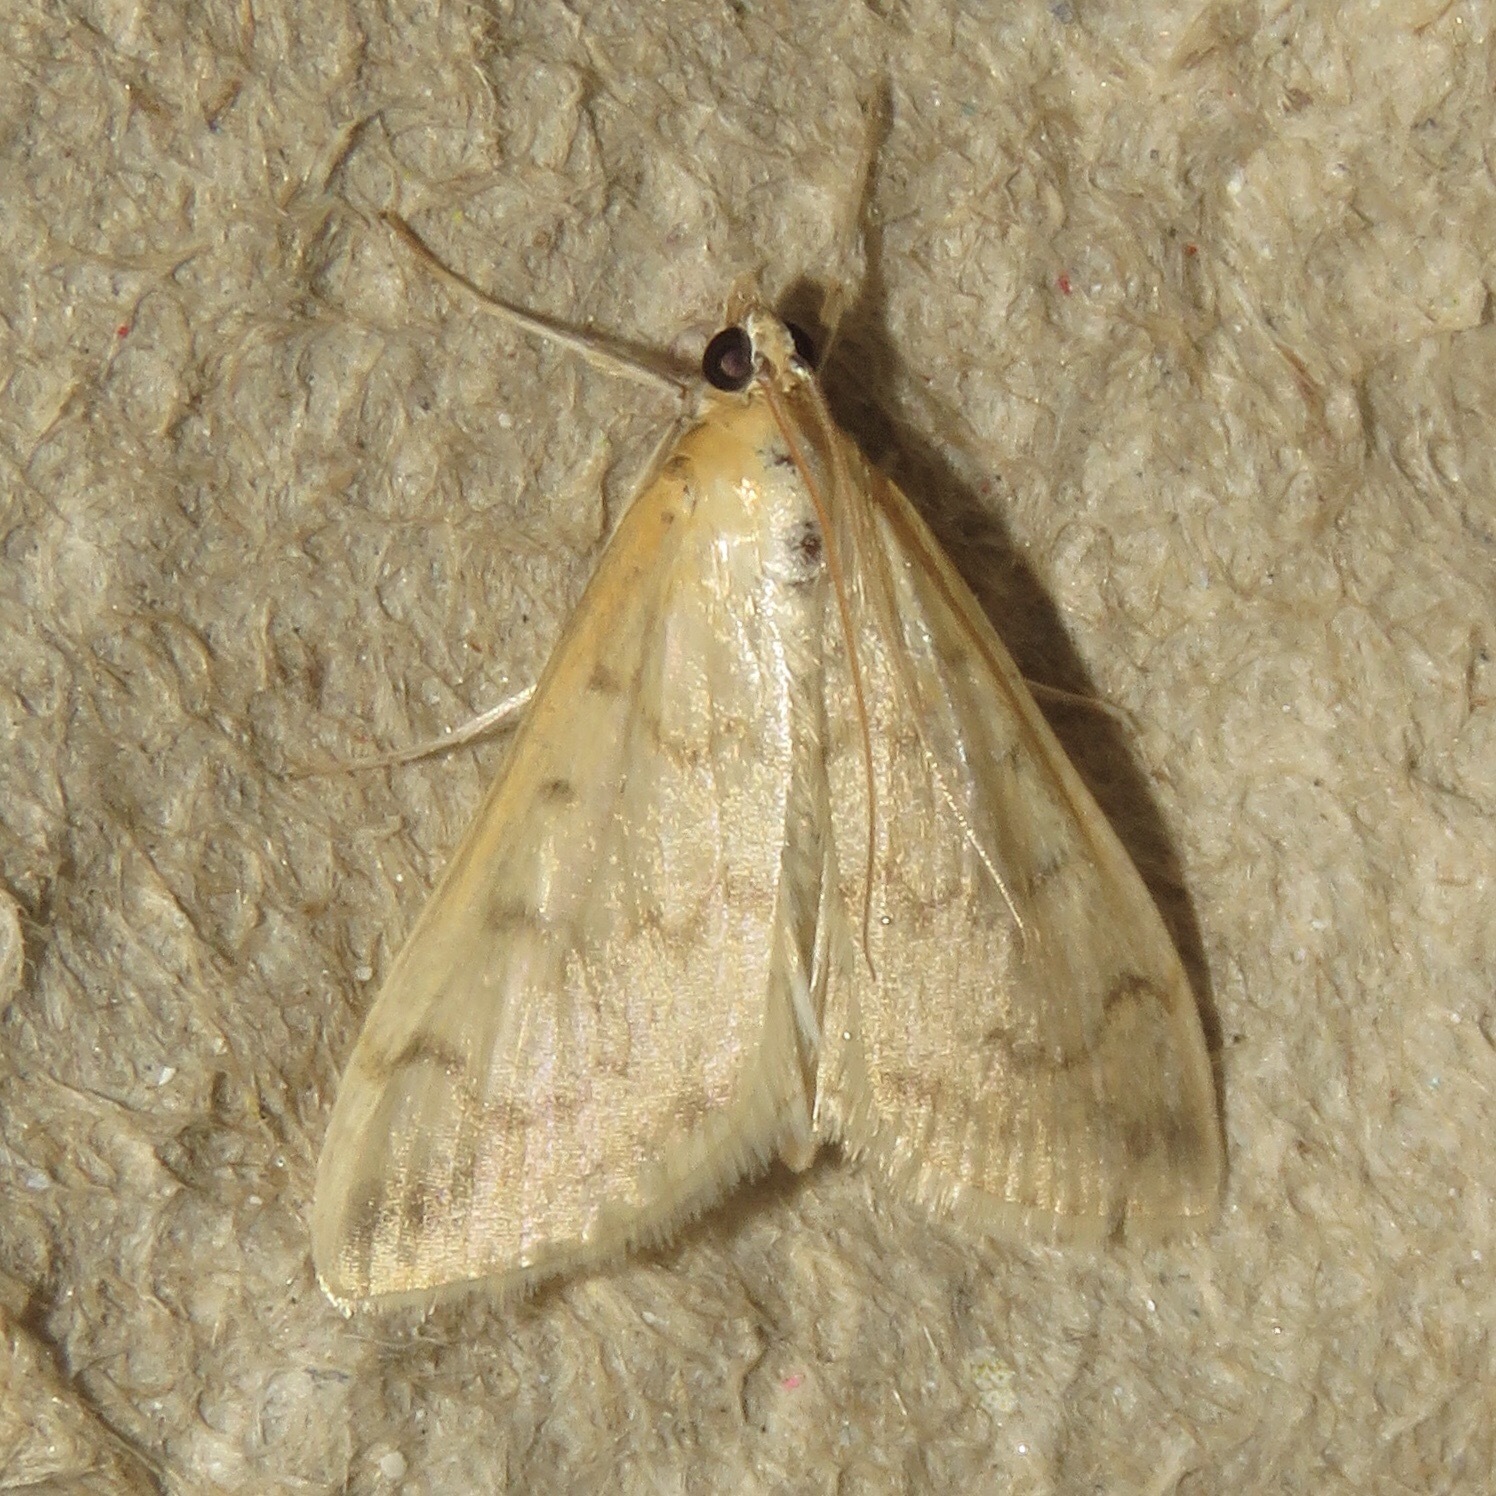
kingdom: Animalia
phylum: Arthropoda
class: Insecta
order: Lepidoptera
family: Crambidae
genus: Hahncappsia
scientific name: Hahncappsia pergilvalis
